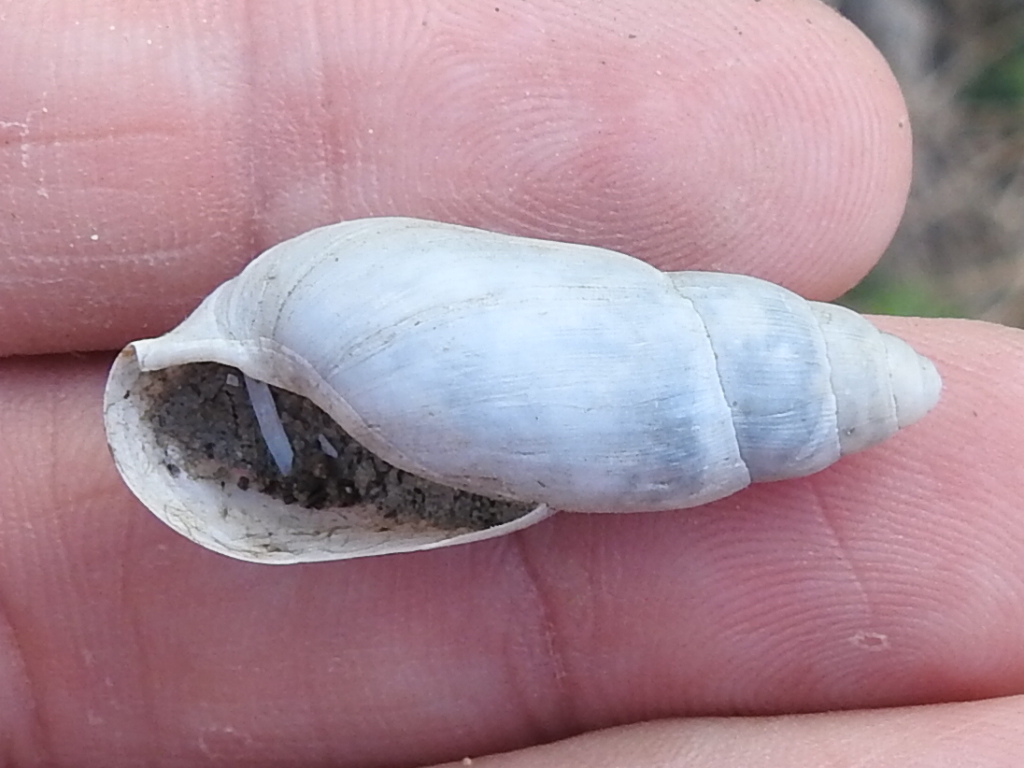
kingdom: Animalia
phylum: Mollusca
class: Gastropoda
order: Stylommatophora
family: Spiraxidae
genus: Euglandina
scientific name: Euglandina texasiana
